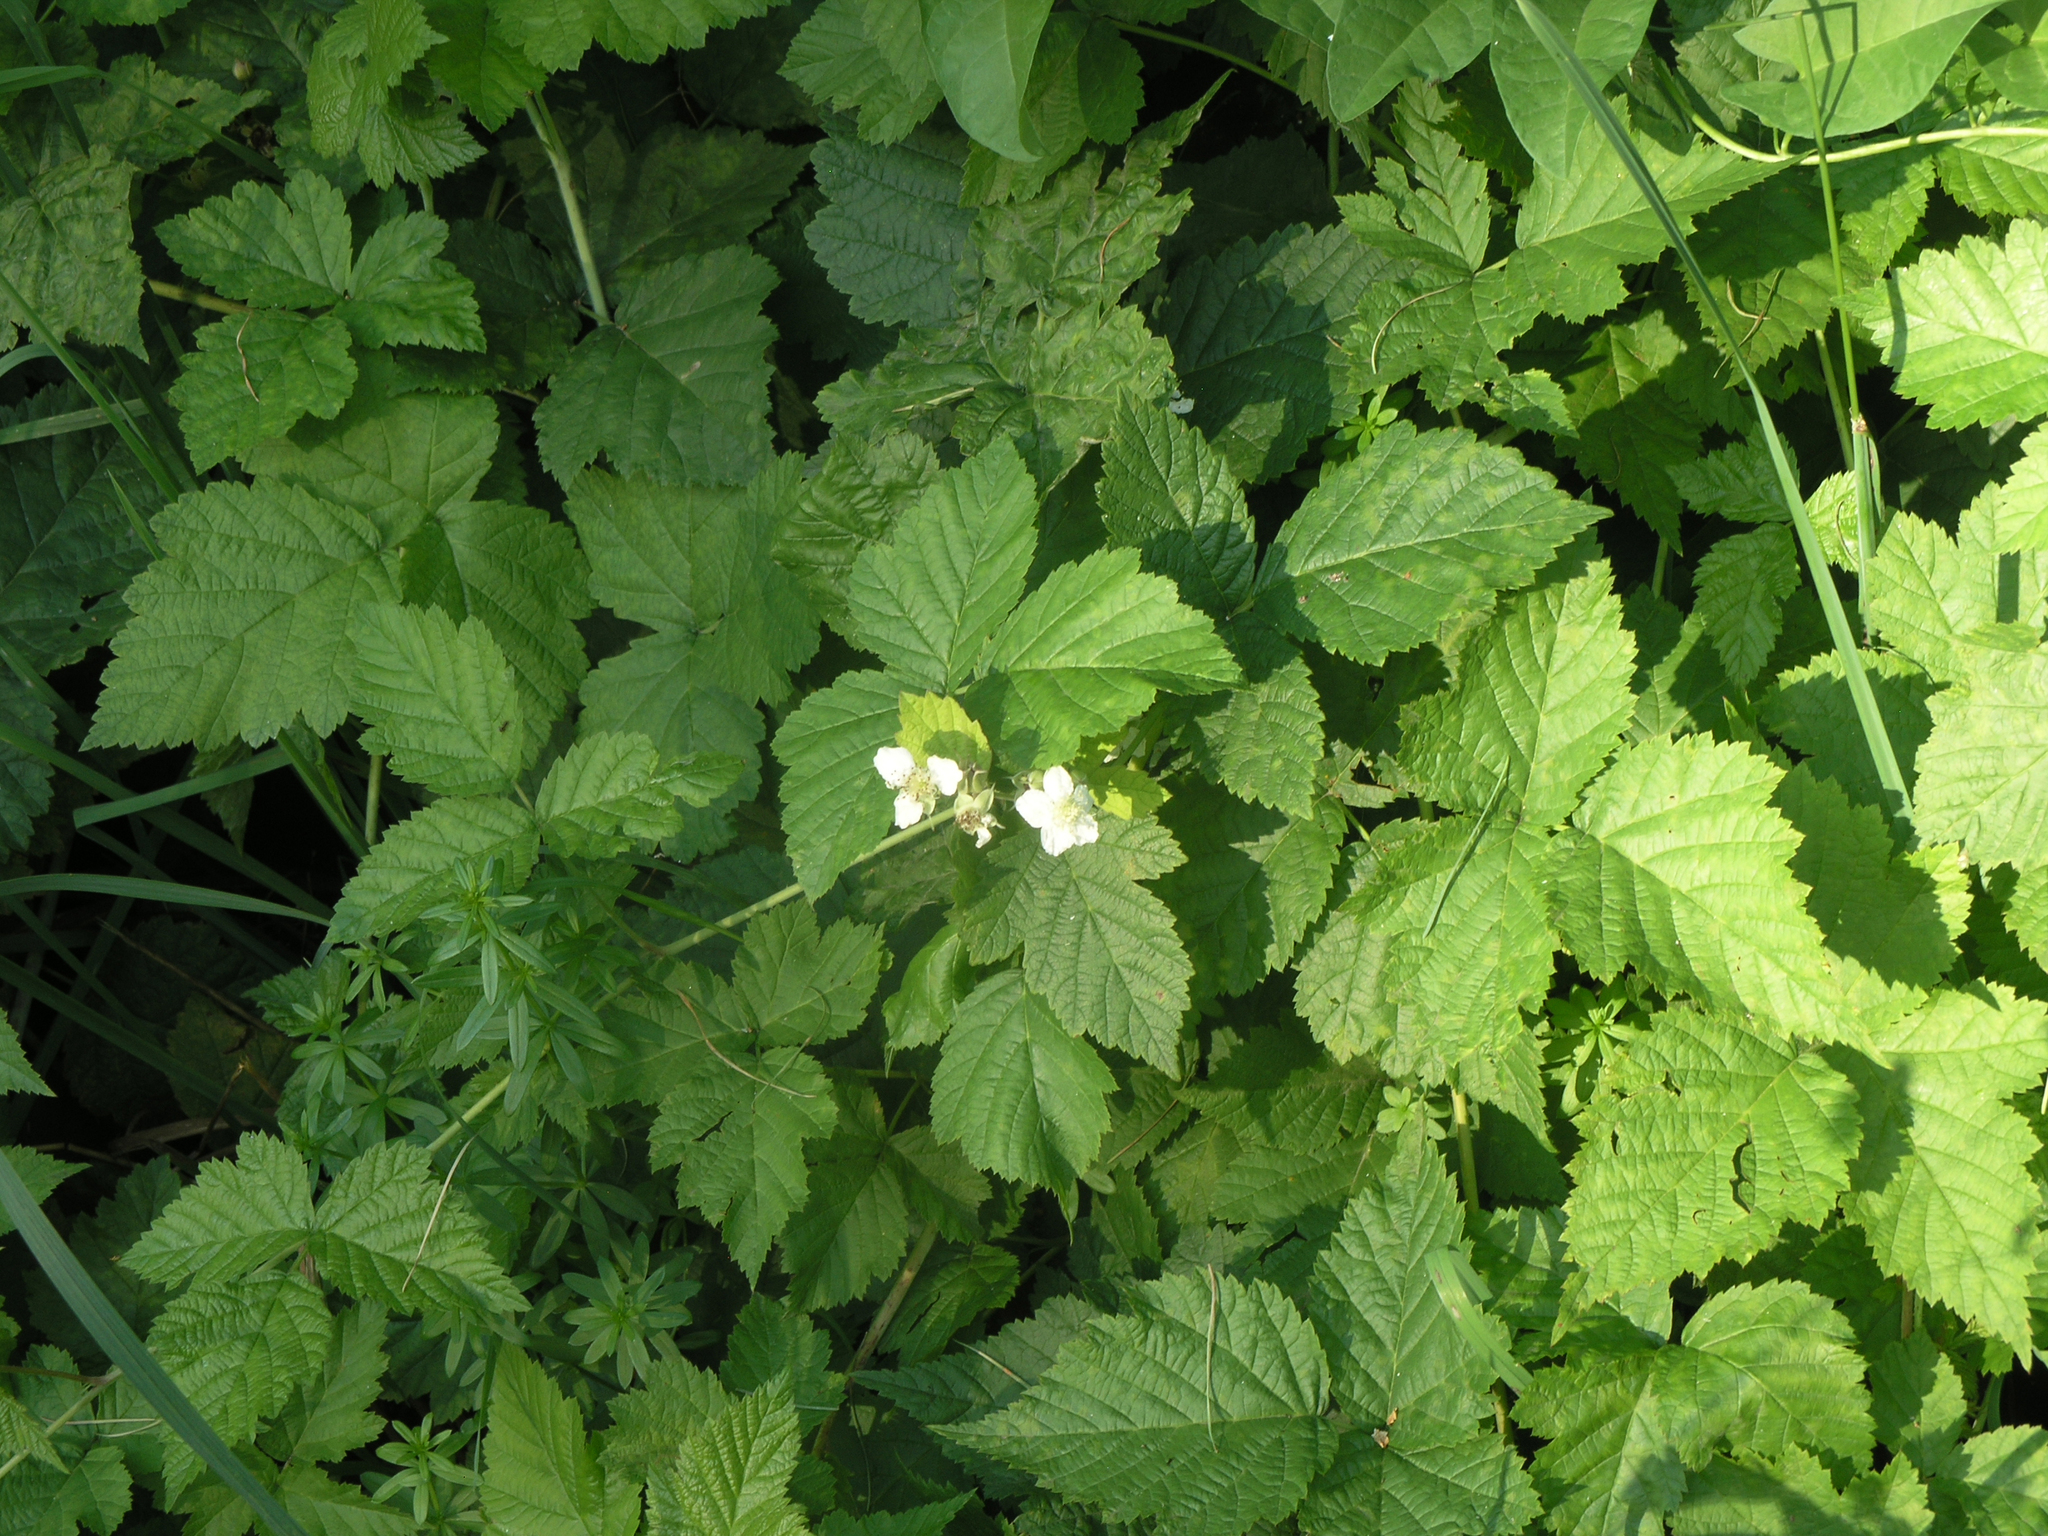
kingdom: Plantae
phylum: Tracheophyta
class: Magnoliopsida
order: Rosales
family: Rosaceae
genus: Rubus
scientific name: Rubus caesius
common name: Dewberry
